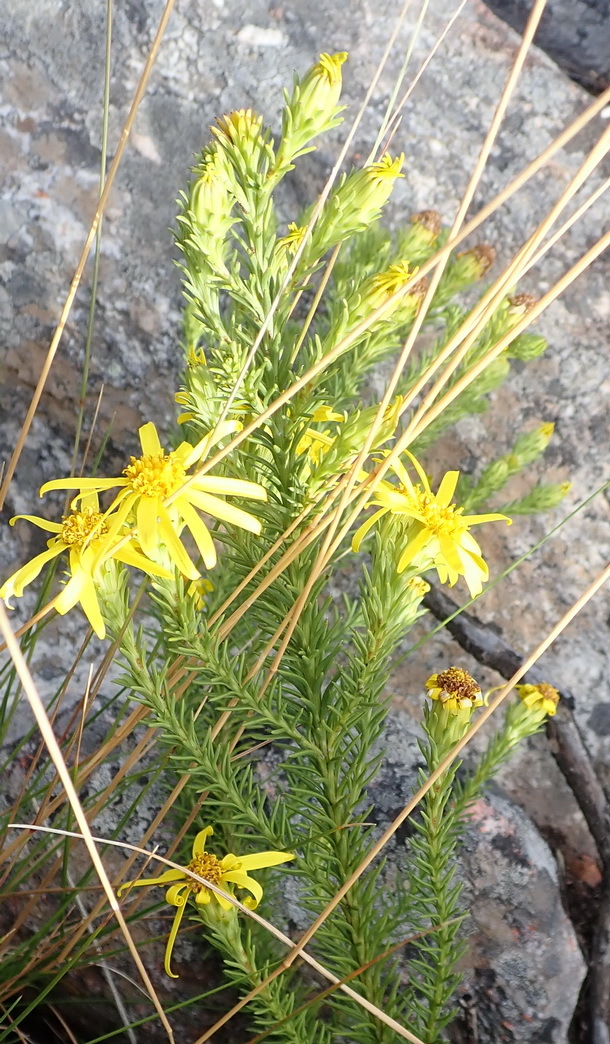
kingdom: Plantae
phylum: Tracheophyta
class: Magnoliopsida
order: Asterales
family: Asteraceae
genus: Senecio
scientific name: Senecio pinifolius
